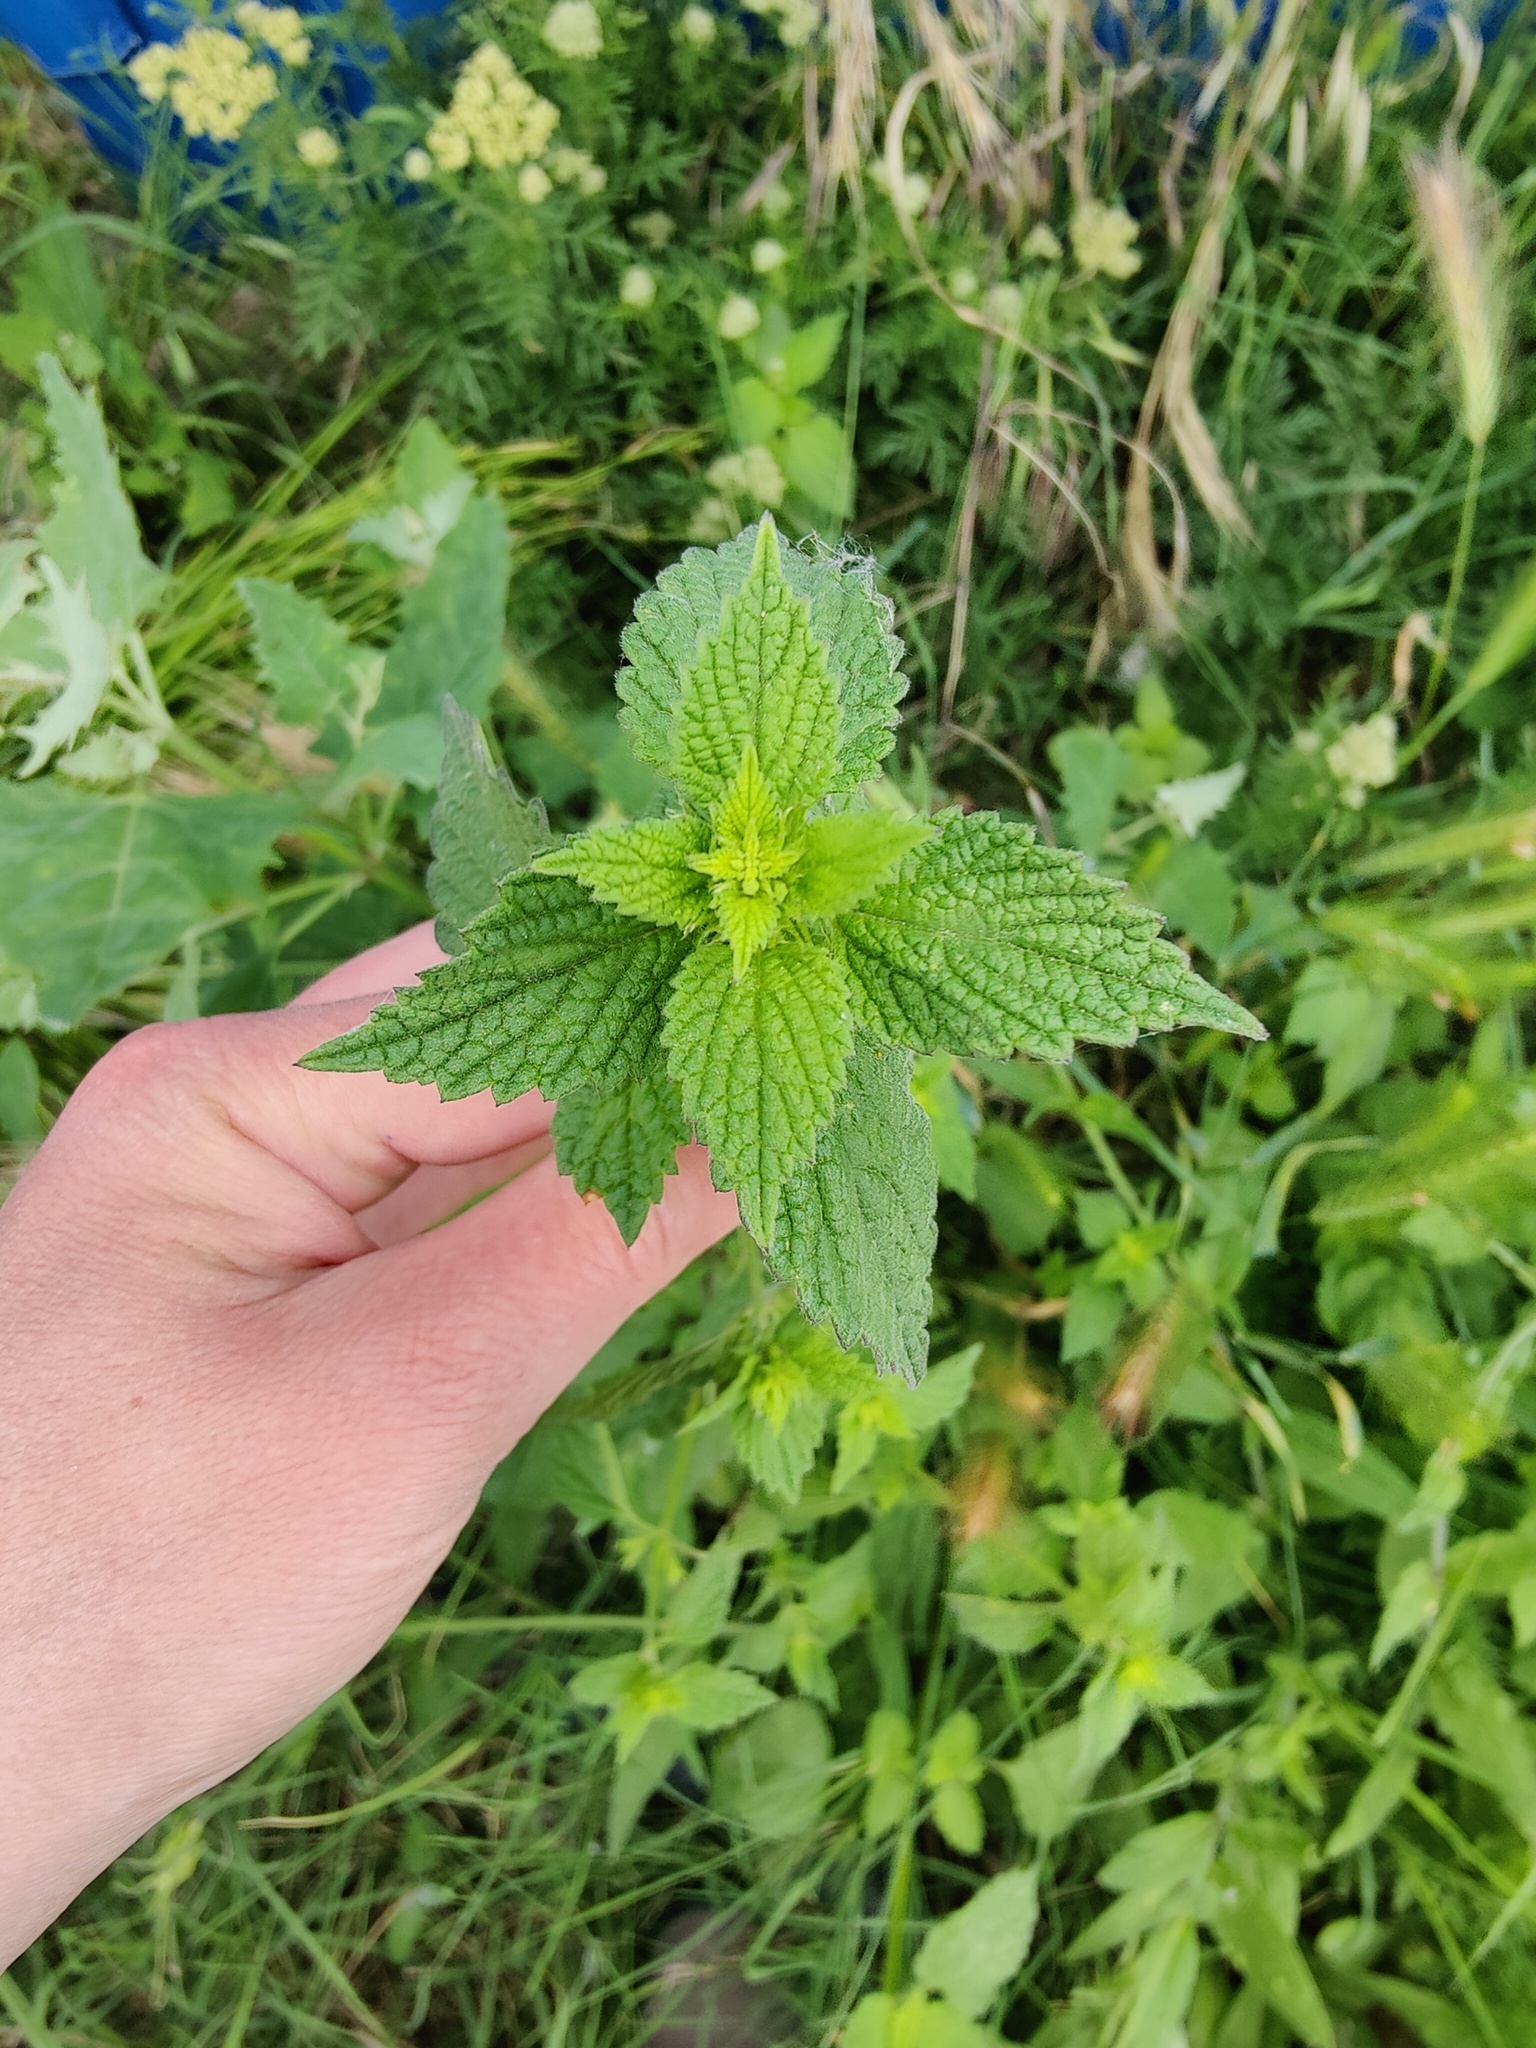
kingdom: Plantae
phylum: Tracheophyta
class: Magnoliopsida
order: Lamiales
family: Lamiaceae
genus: Ballota
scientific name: Ballota nigra
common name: Black horehound
